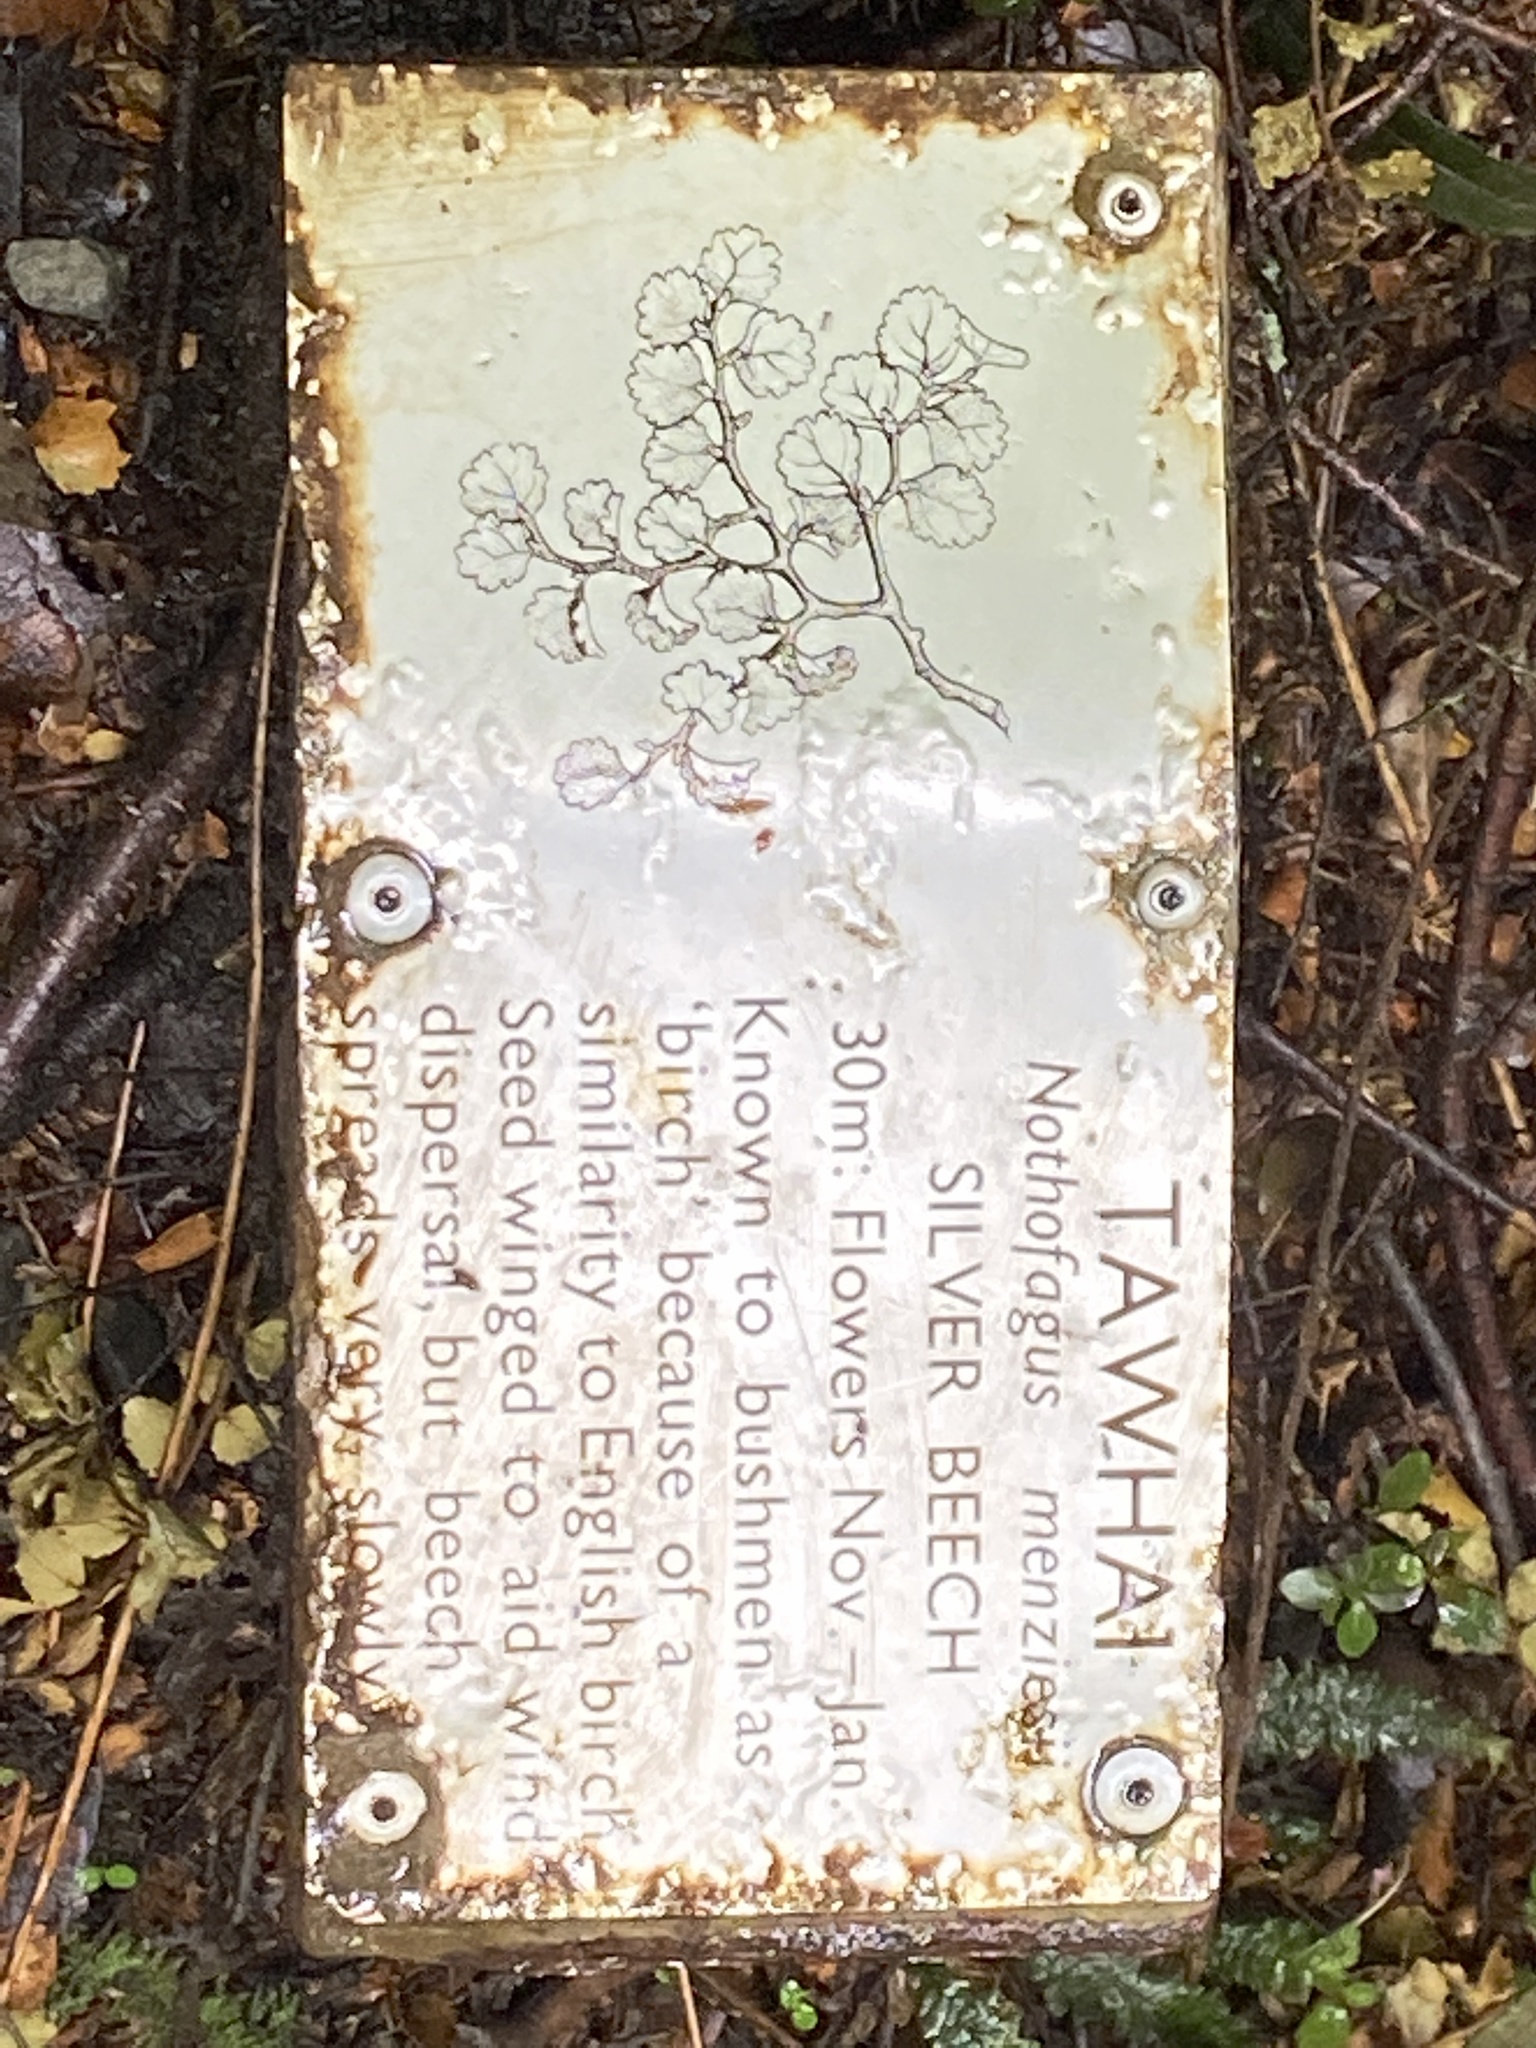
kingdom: Plantae
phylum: Tracheophyta
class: Magnoliopsida
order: Fagales
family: Nothofagaceae
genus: Nothofagus
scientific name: Nothofagus menziesii
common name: Silver beech
